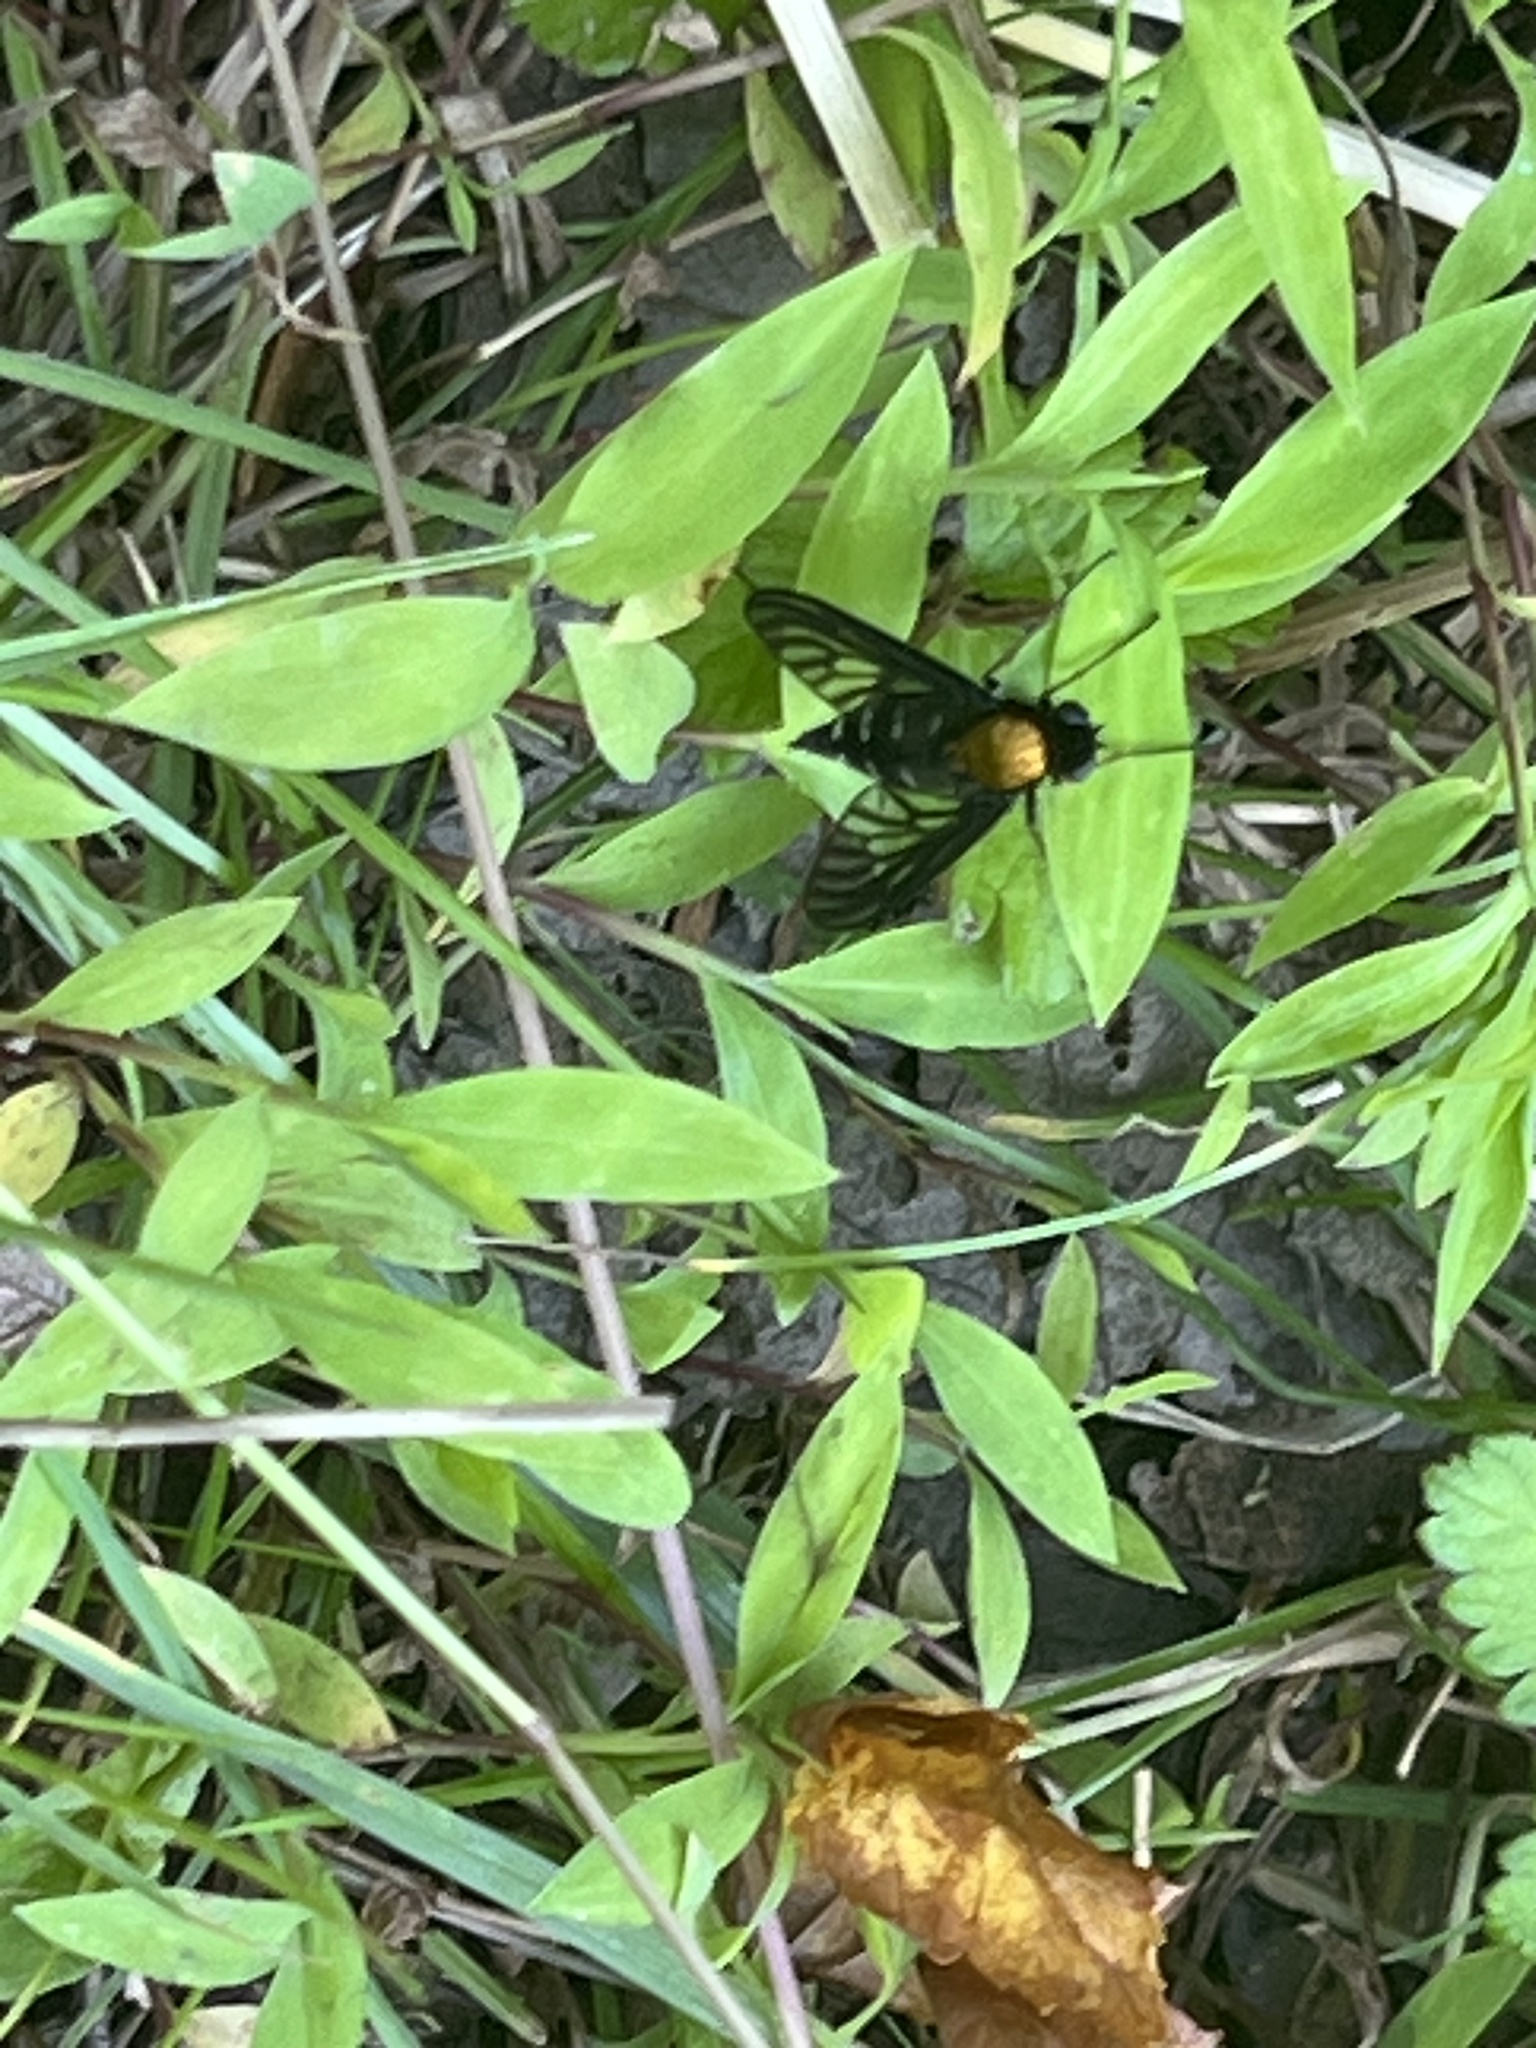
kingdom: Animalia
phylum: Arthropoda
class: Insecta
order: Diptera
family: Rhagionidae
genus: Chrysopilus
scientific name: Chrysopilus thoracicus
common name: Golden-backed snipe fly
